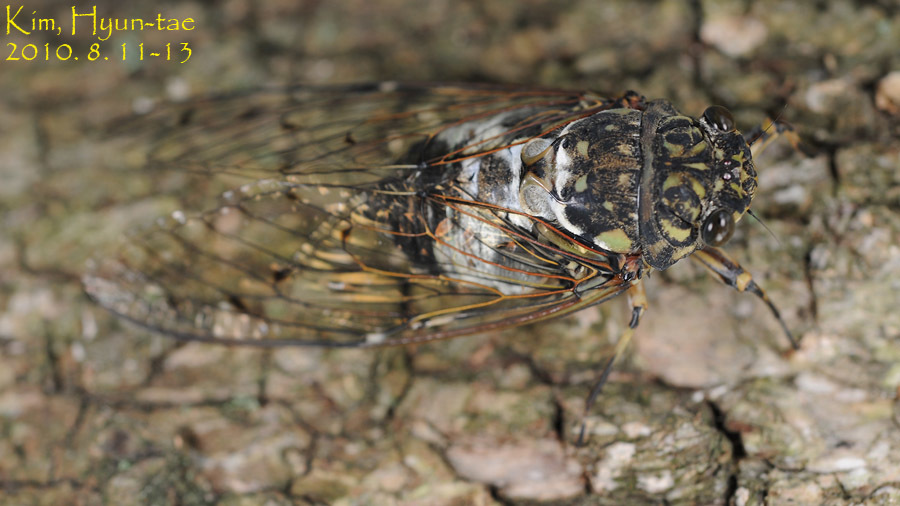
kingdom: Animalia
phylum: Arthropoda
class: Insecta
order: Hemiptera
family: Cicadidae
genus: Hyalessa
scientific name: Hyalessa maculaticollis
